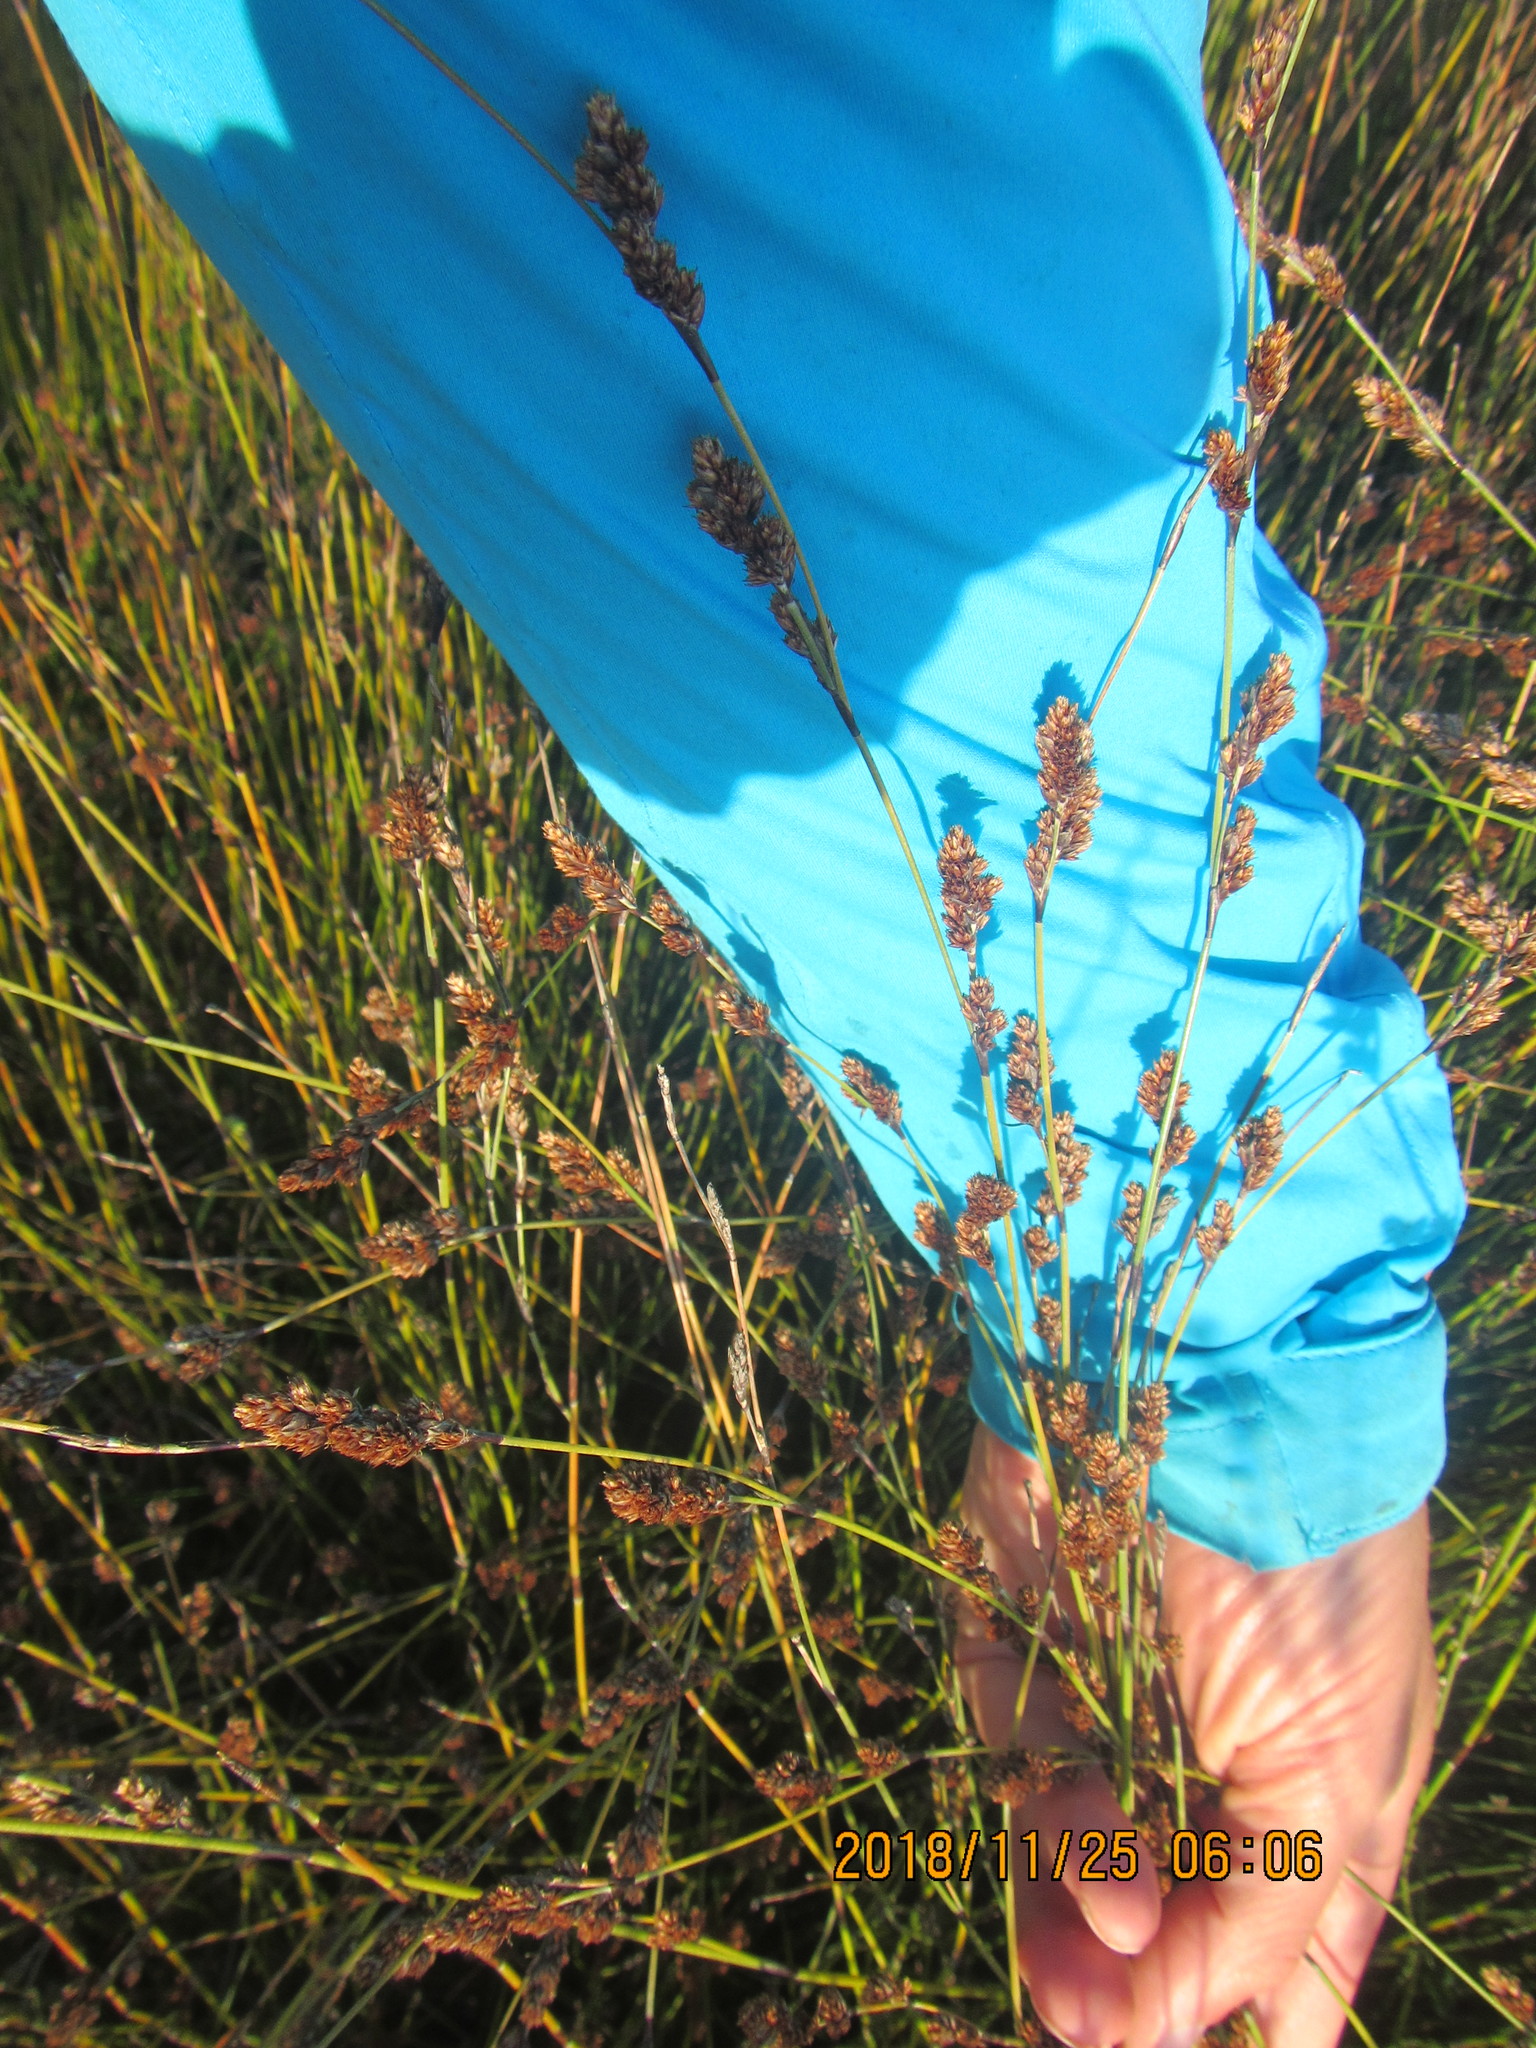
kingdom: Plantae
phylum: Tracheophyta
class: Liliopsida
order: Poales
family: Restionaceae
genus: Apodasmia
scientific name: Apodasmia similis
